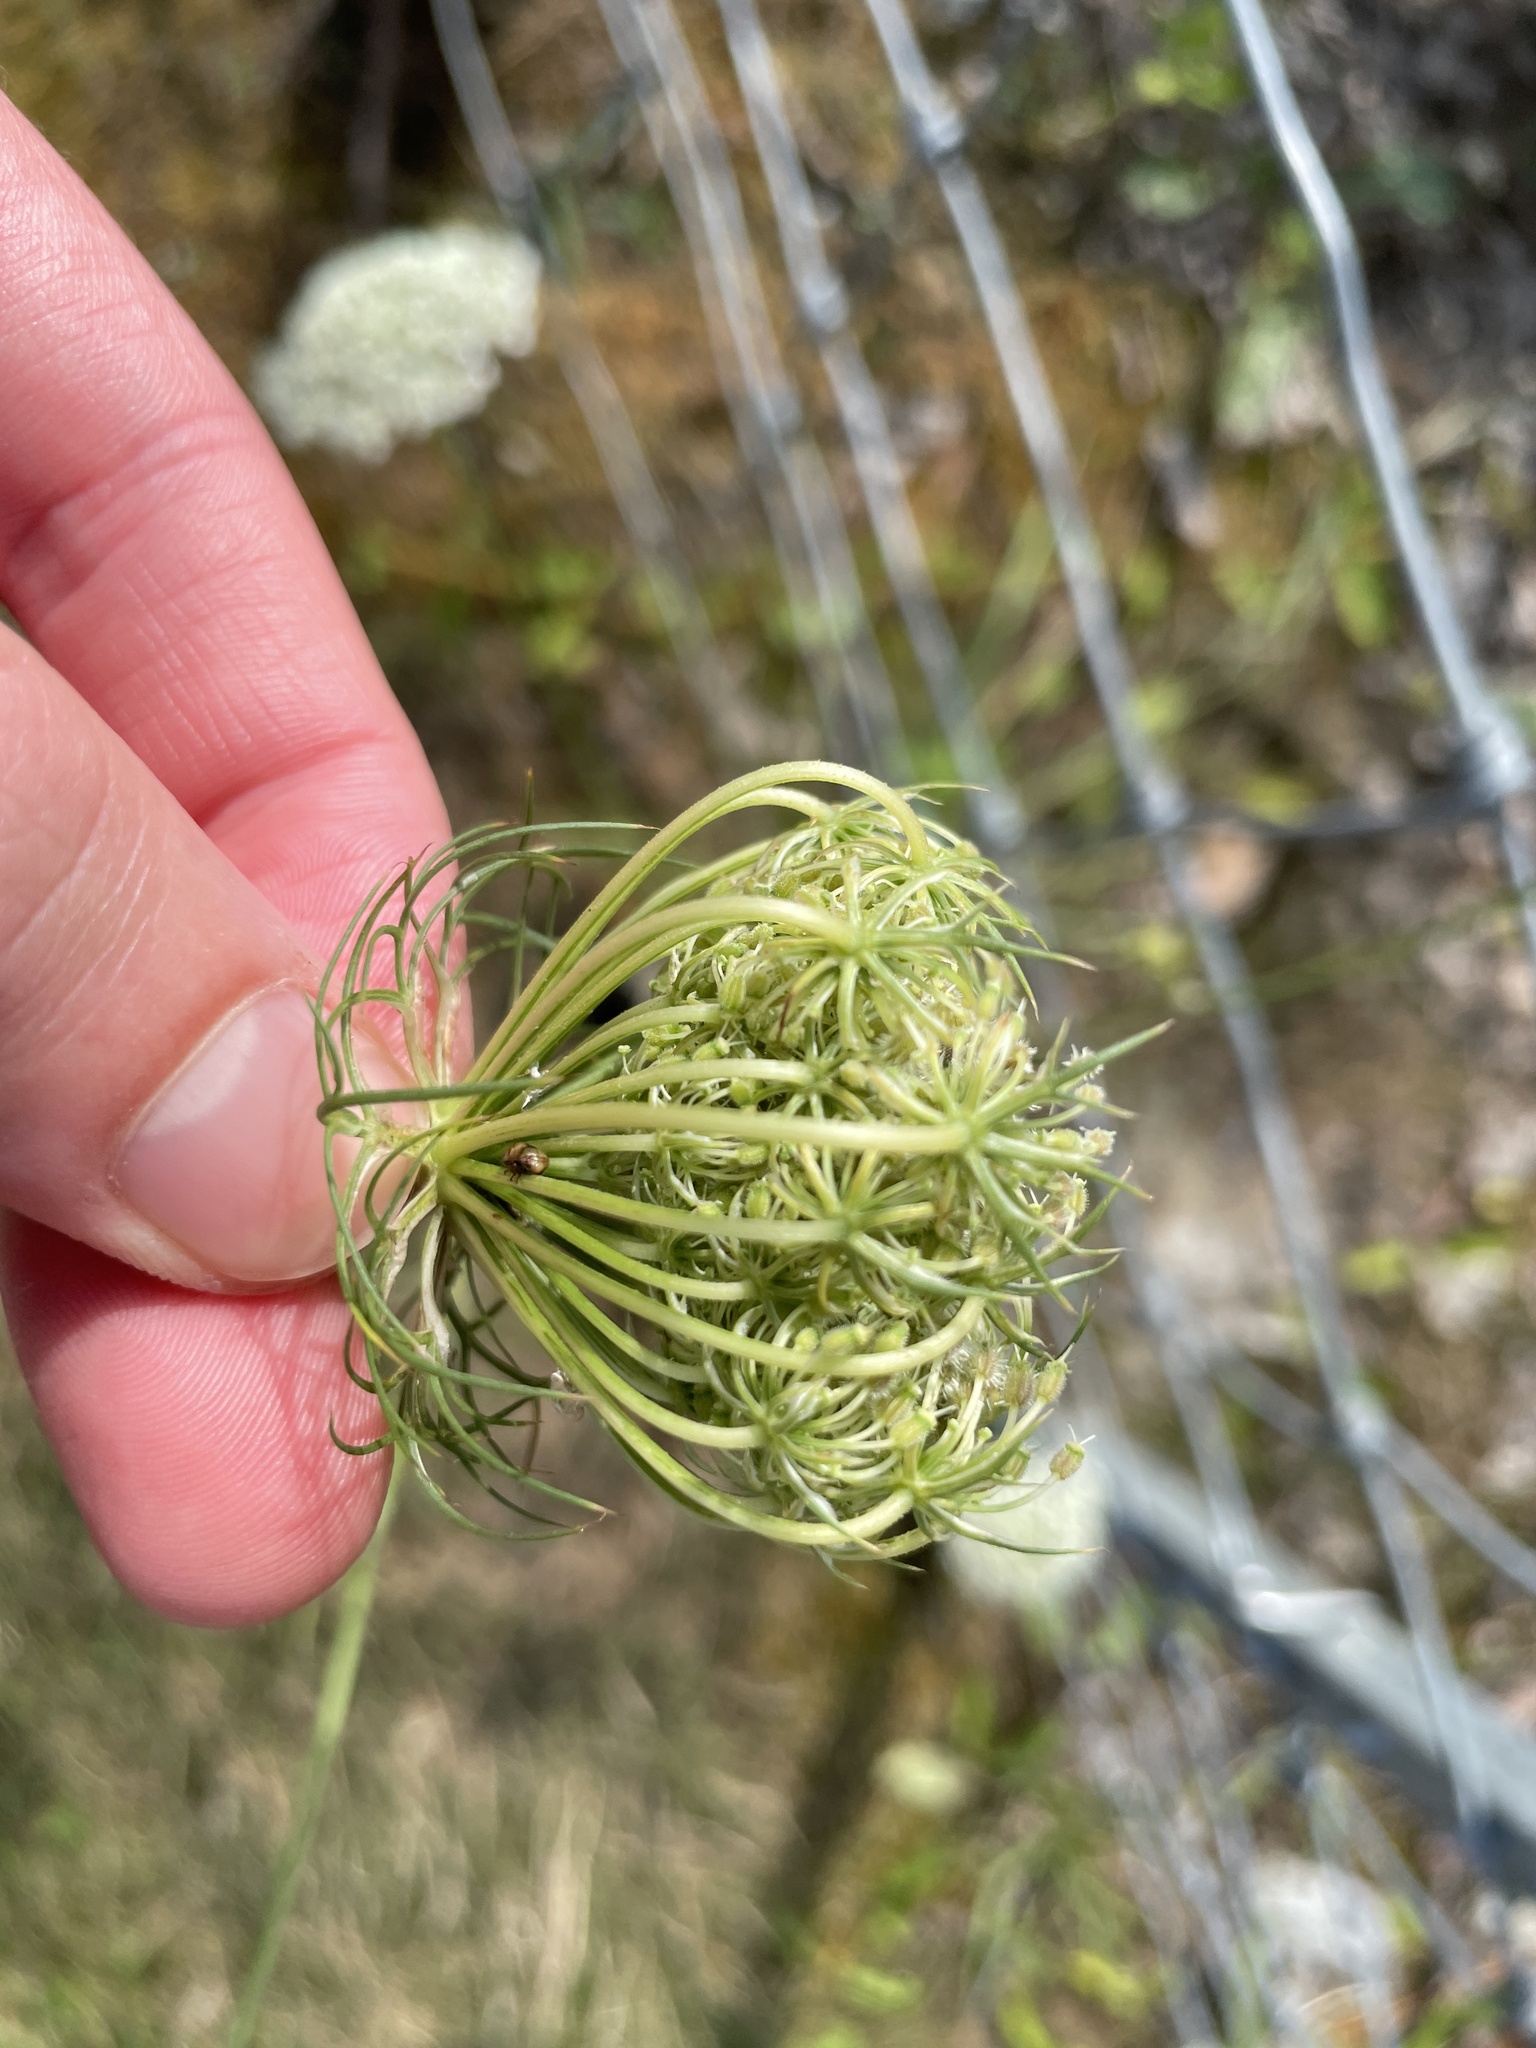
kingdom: Plantae
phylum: Tracheophyta
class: Magnoliopsida
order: Apiales
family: Apiaceae
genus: Daucus
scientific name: Daucus carota
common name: Wild carrot
